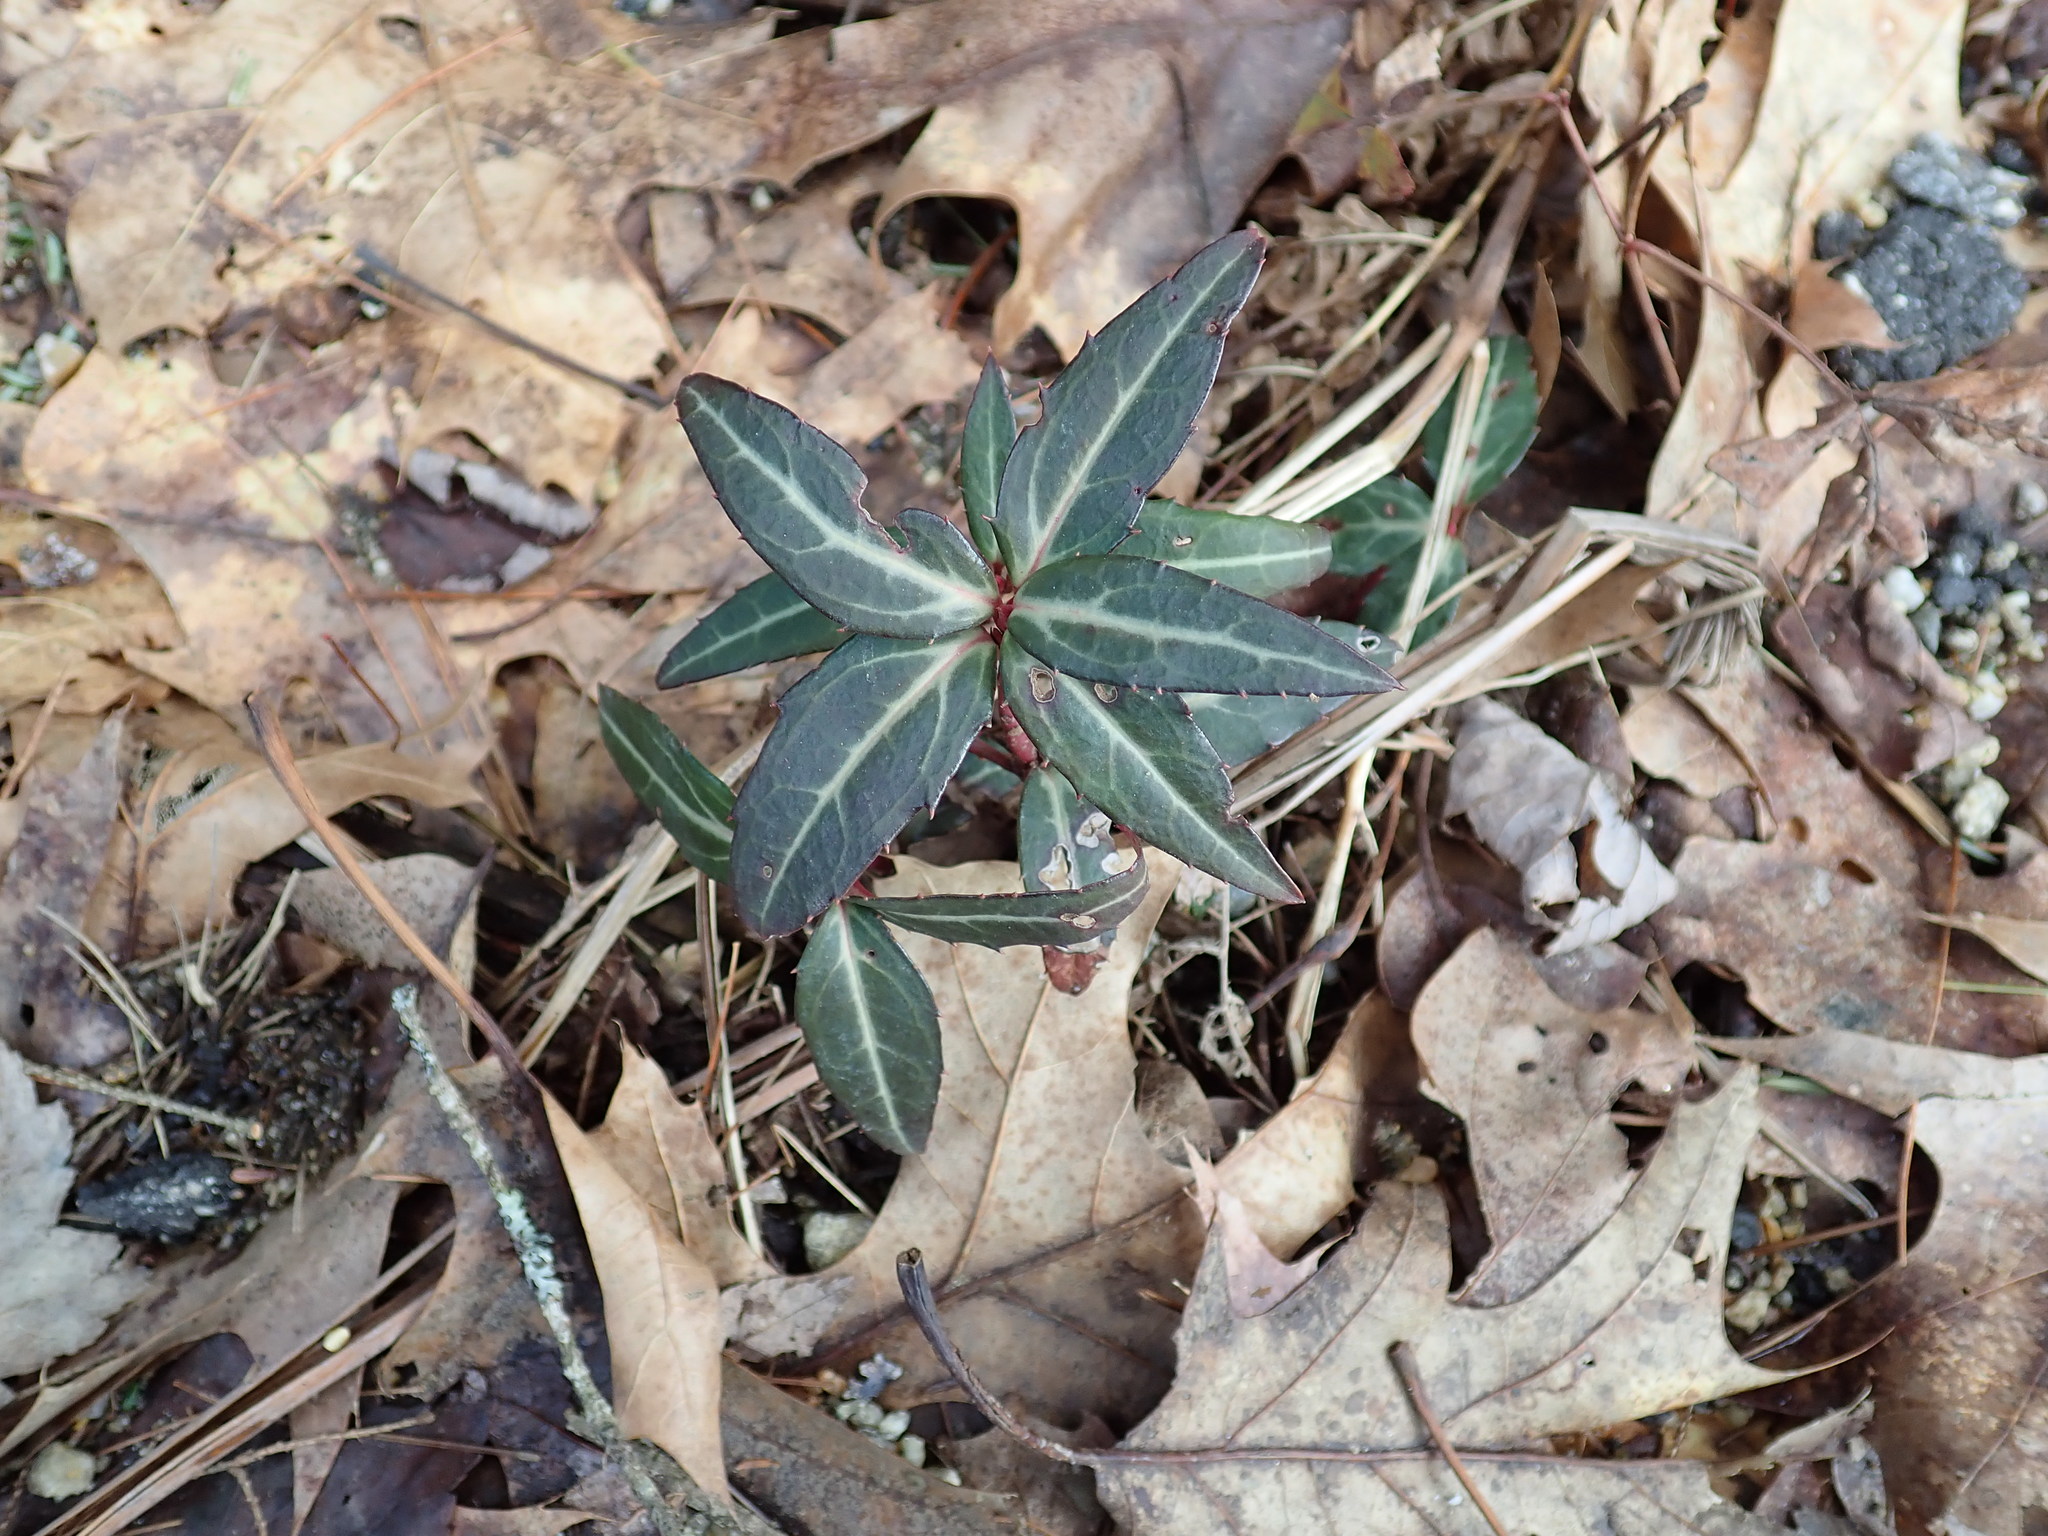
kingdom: Plantae
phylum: Tracheophyta
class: Magnoliopsida
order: Ericales
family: Ericaceae
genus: Chimaphila
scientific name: Chimaphila maculata
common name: Spotted pipsissewa
